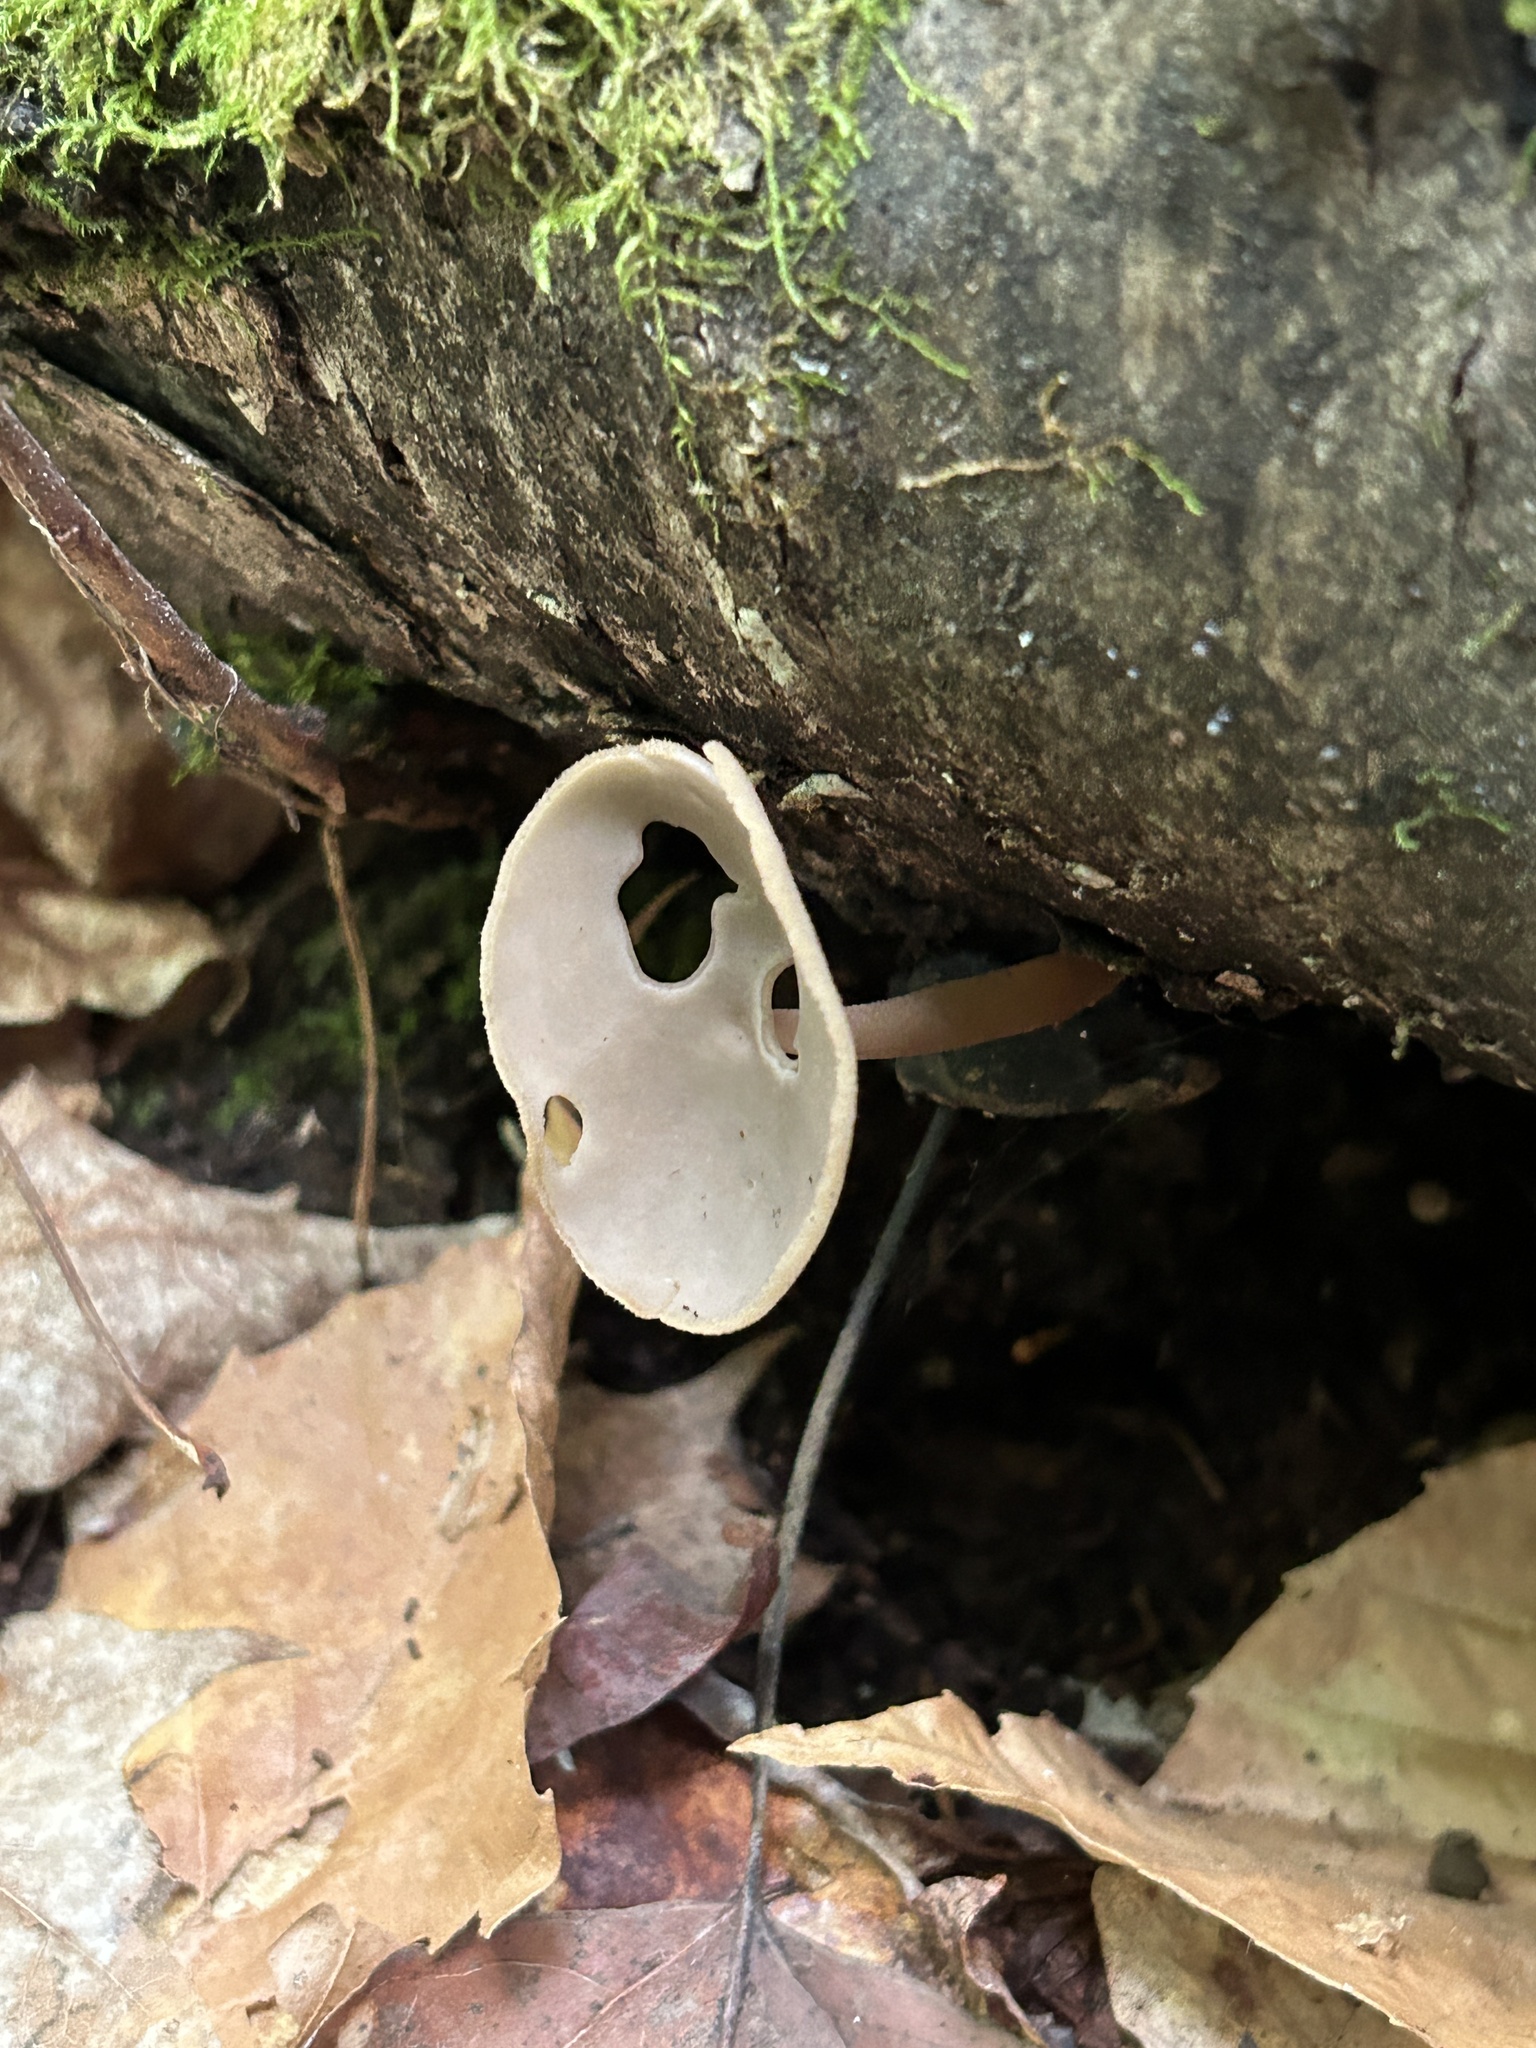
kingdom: Fungi
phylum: Ascomycota
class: Pezizomycetes
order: Pezizales
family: Helvellaceae
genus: Helvella
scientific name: Helvella macropus
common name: Felt saddle
